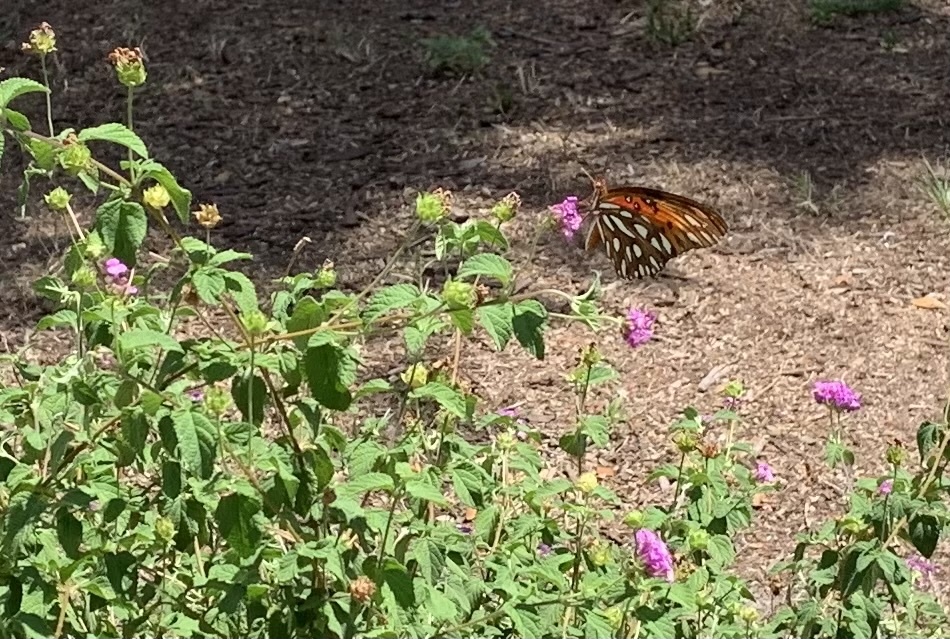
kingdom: Animalia
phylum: Arthropoda
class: Insecta
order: Lepidoptera
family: Nymphalidae
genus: Dione
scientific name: Dione vanillae
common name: Gulf fritillary
